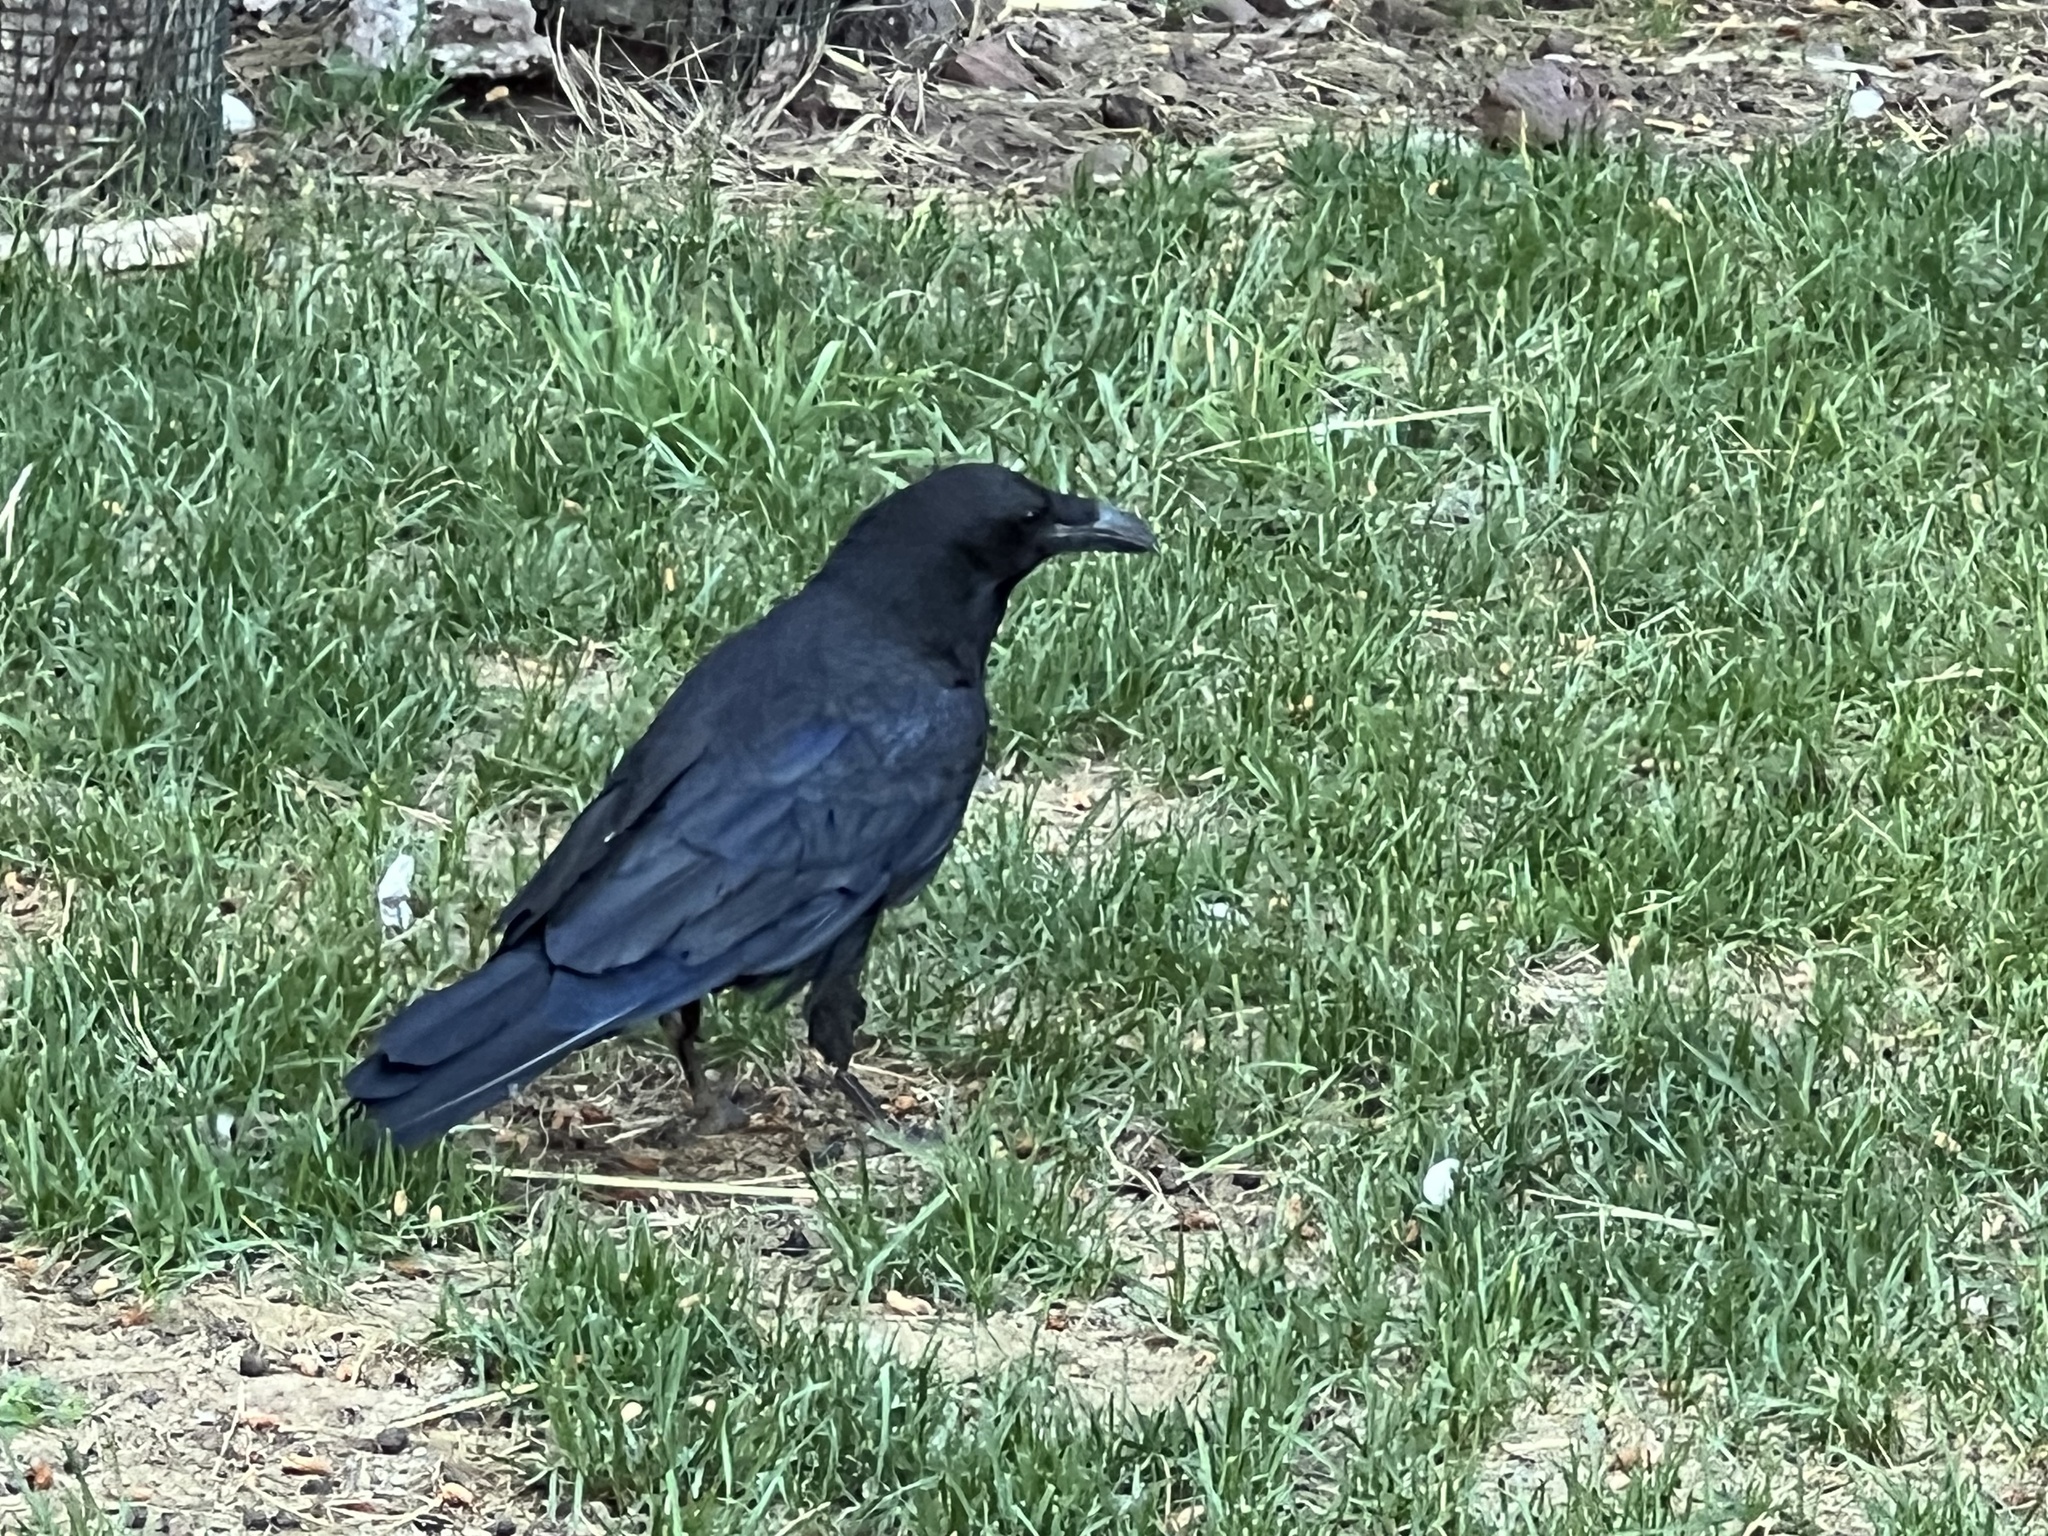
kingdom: Animalia
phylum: Chordata
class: Aves
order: Passeriformes
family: Corvidae
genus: Corvus
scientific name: Corvus corax
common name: Common raven
